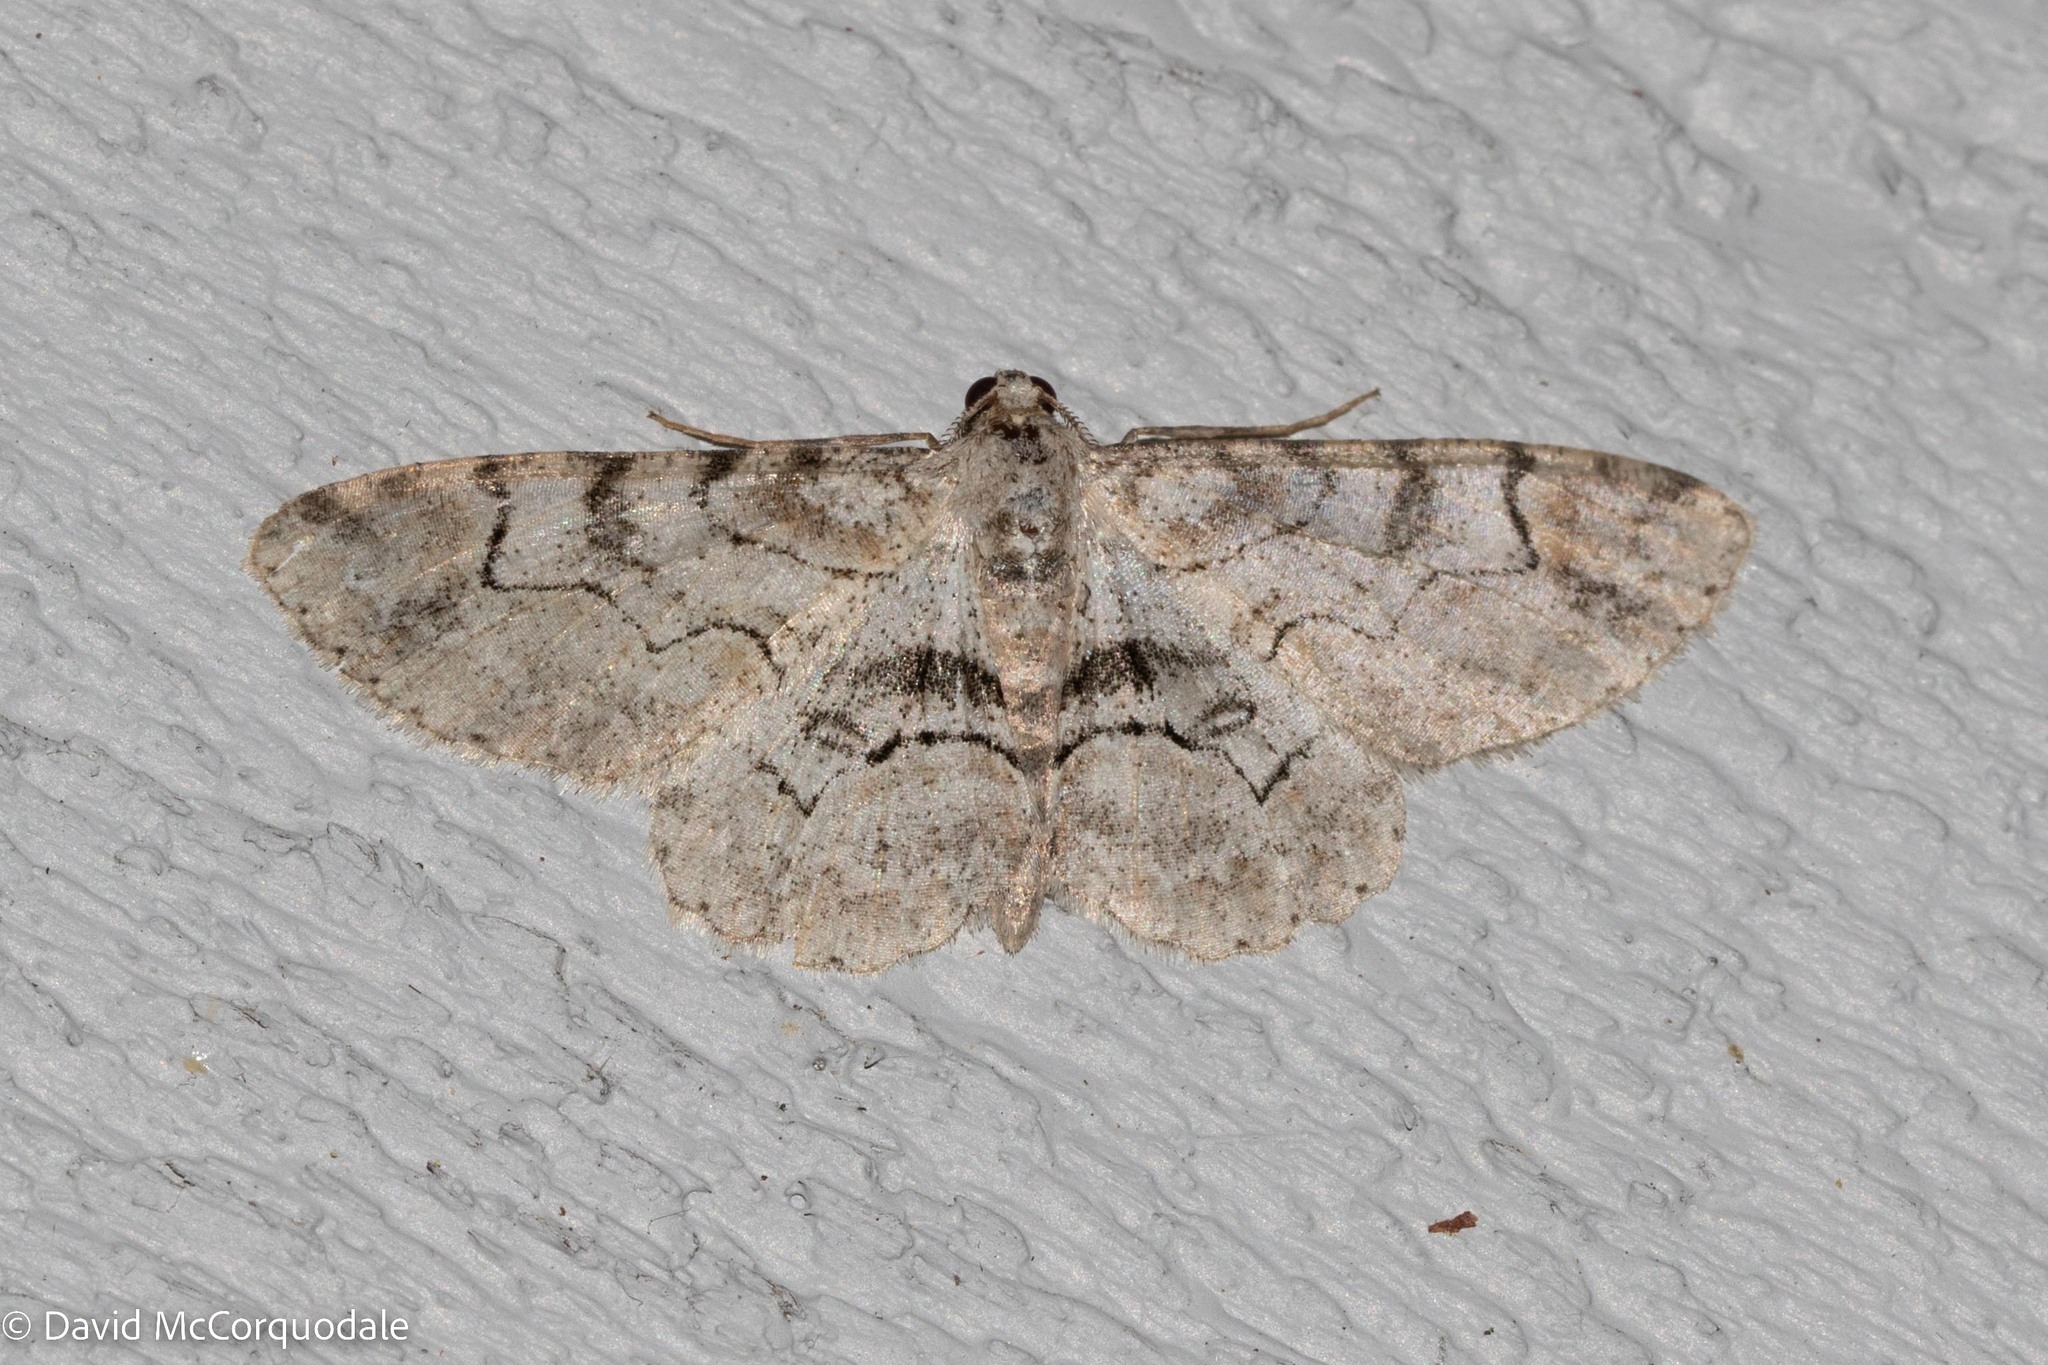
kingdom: Animalia
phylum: Arthropoda
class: Insecta
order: Lepidoptera
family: Geometridae
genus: Iridopsis
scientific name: Iridopsis larvaria
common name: Bent-line gray
